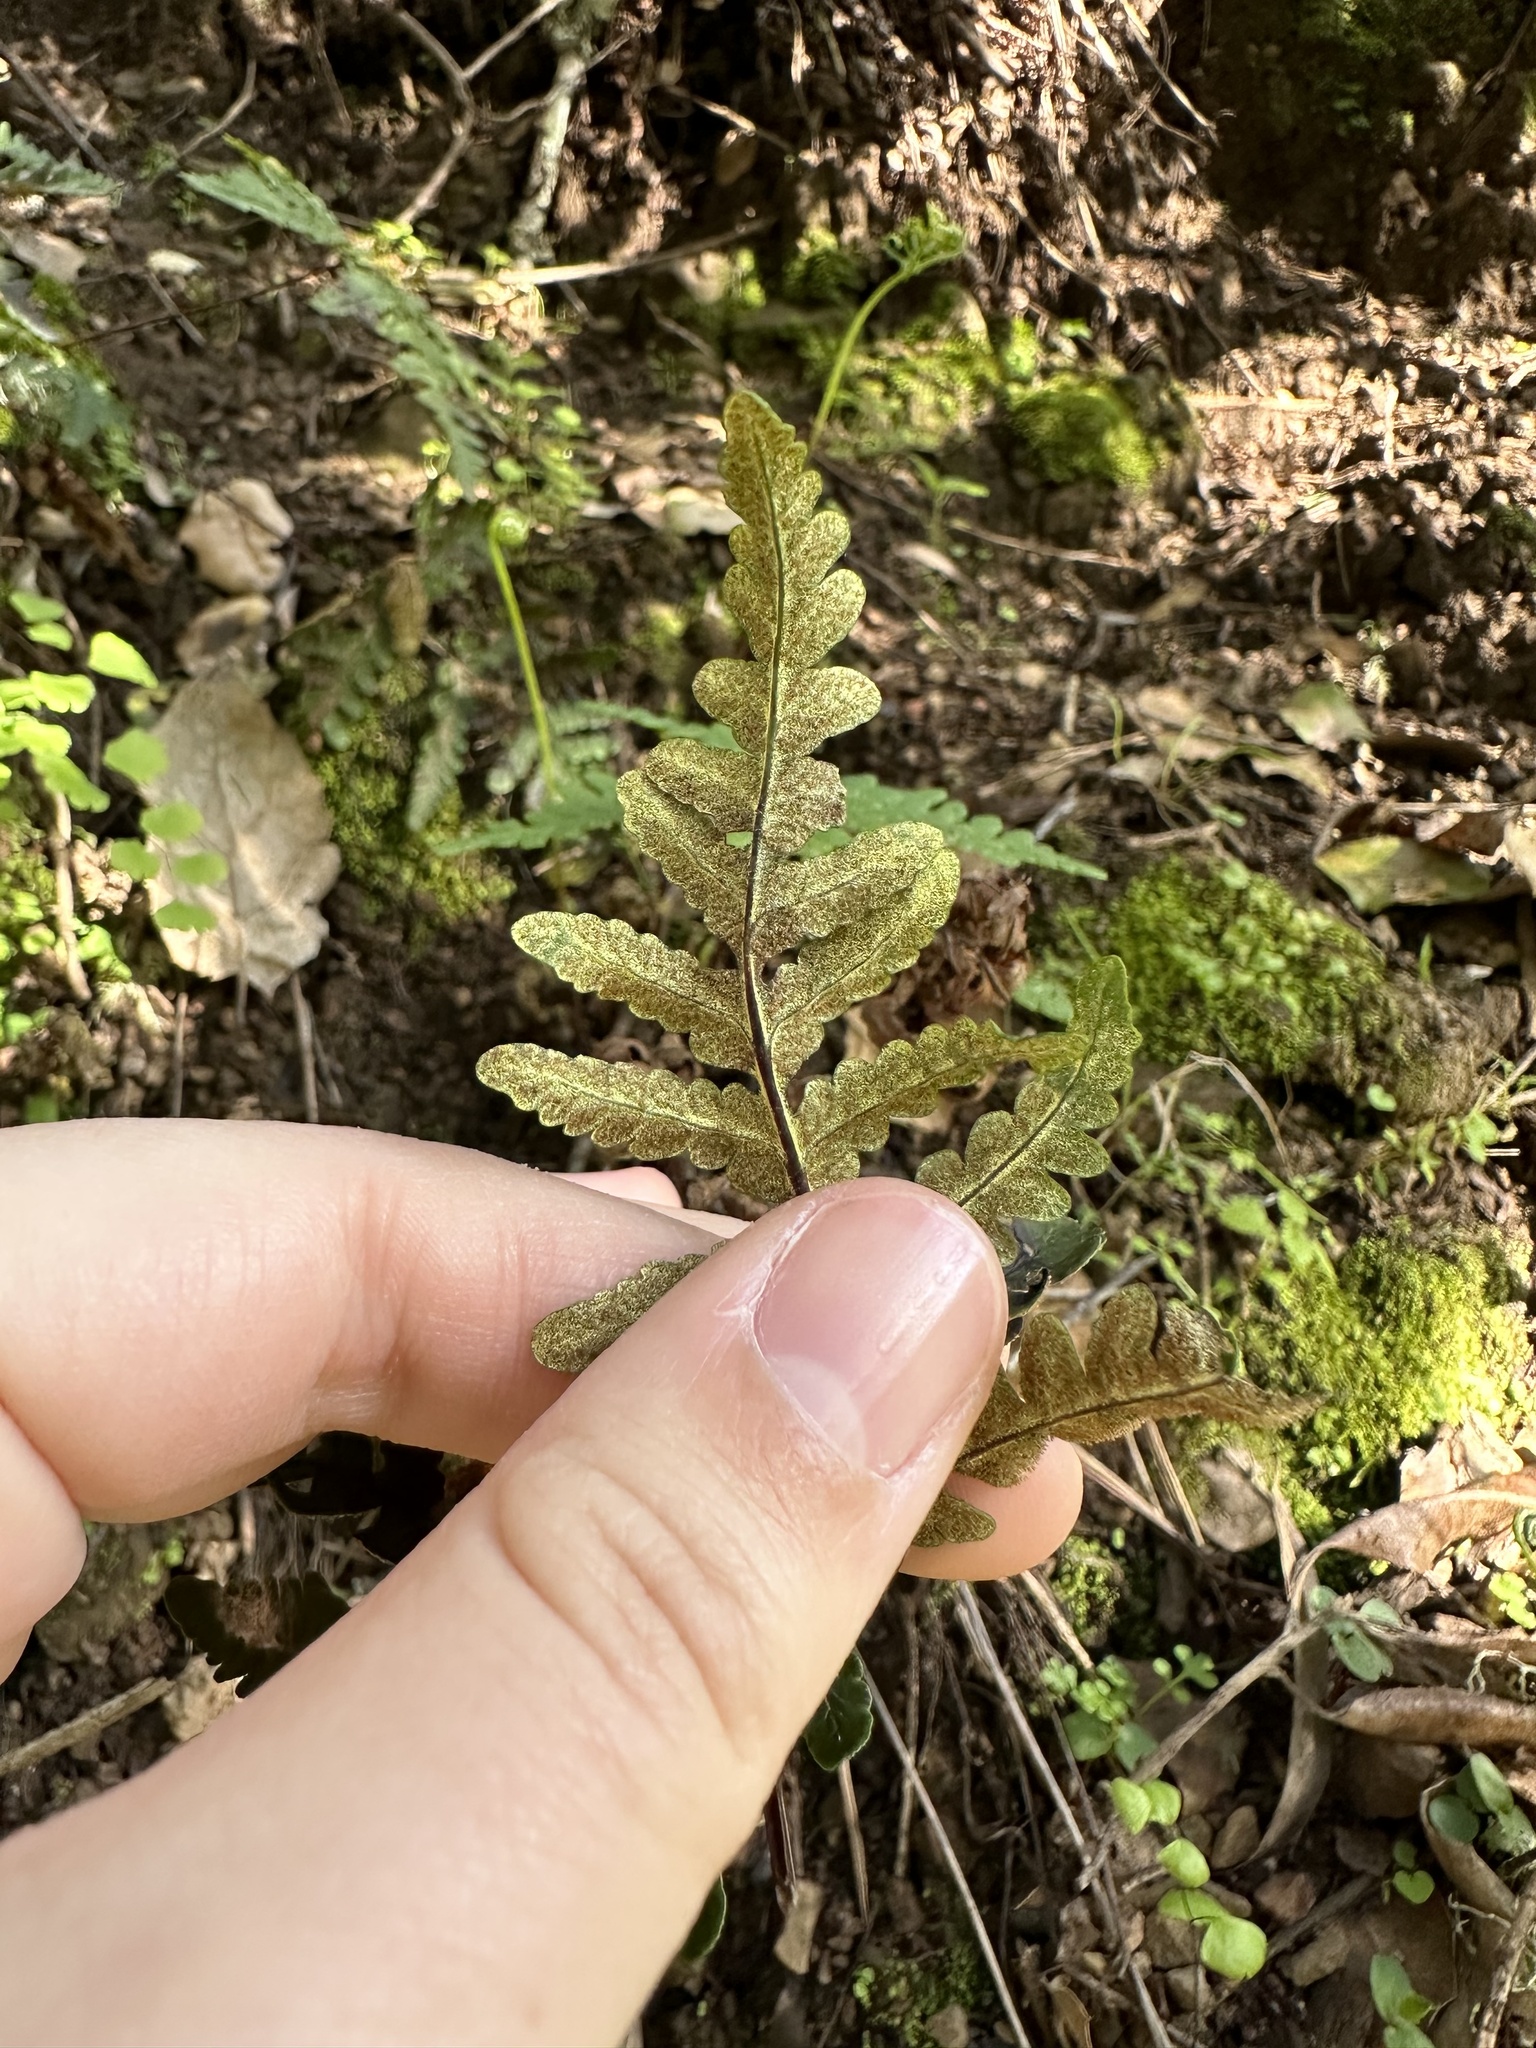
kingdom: Plantae
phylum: Tracheophyta
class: Polypodiopsida
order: Polypodiales
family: Pteridaceae
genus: Pentagramma
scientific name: Pentagramma triangularis
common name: Gold fern
